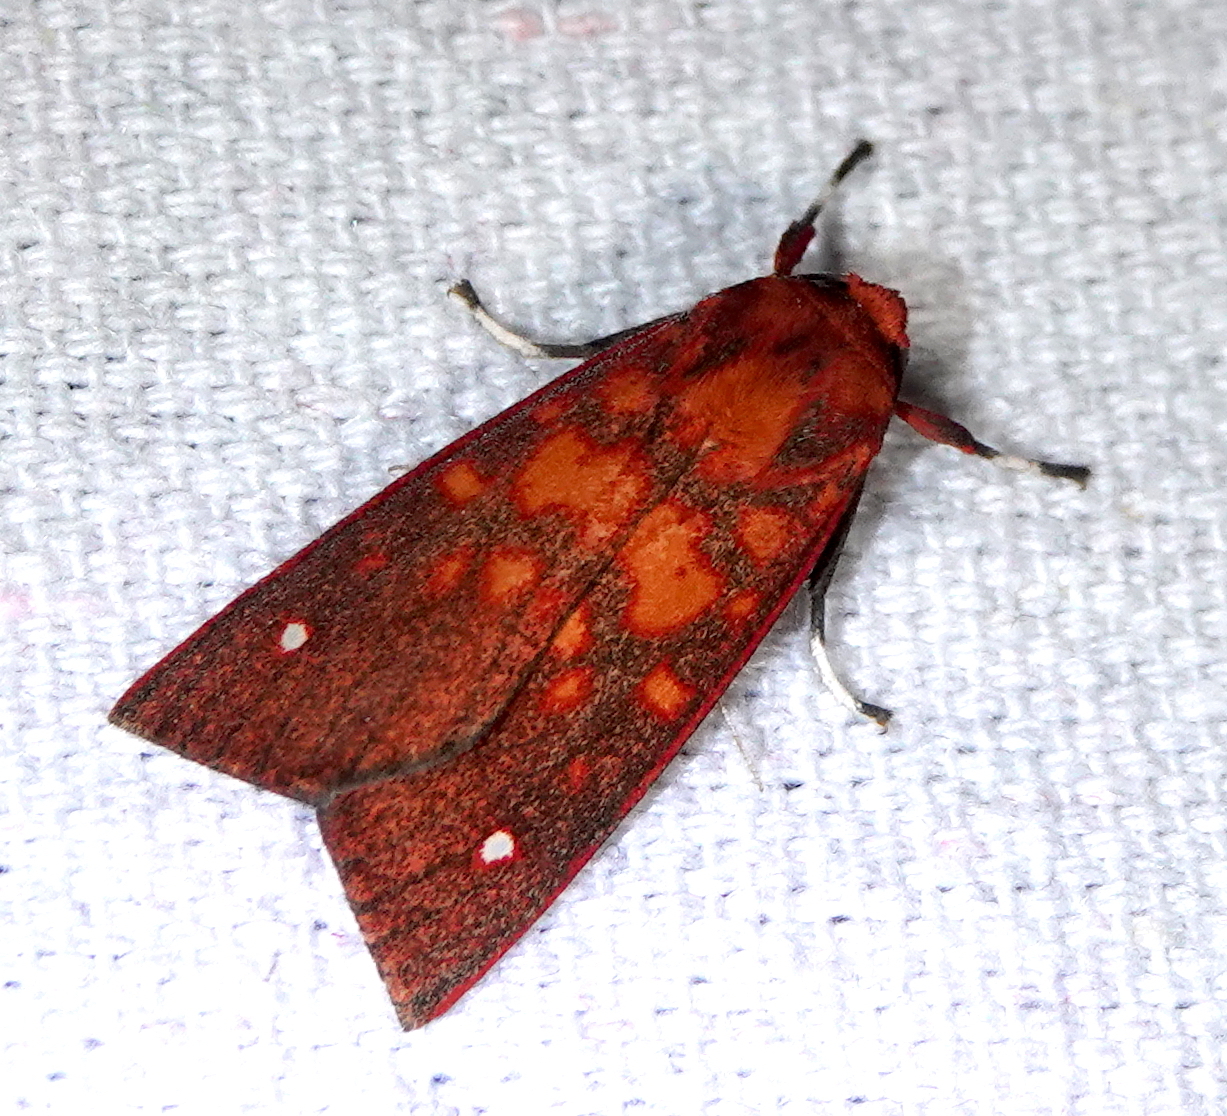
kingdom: Animalia
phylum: Arthropoda
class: Insecta
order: Lepidoptera
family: Erebidae
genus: Melese
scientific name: Melese intensa
